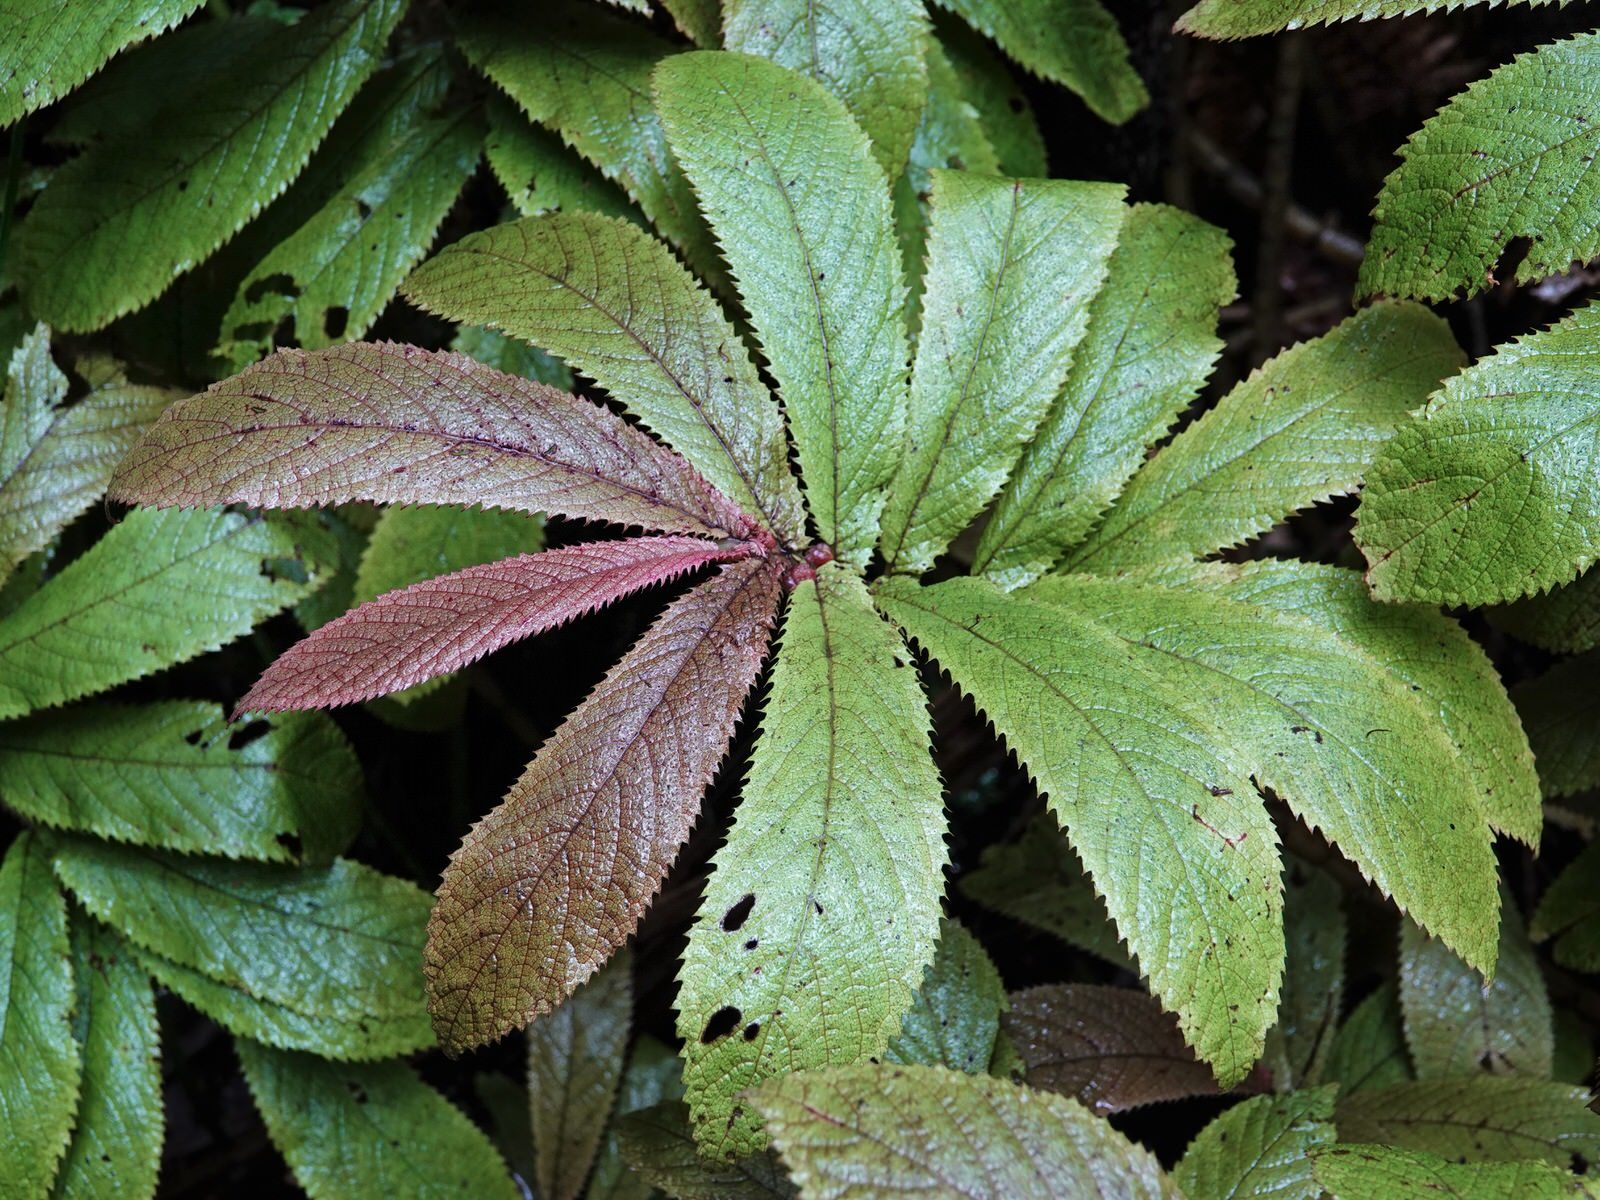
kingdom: Plantae
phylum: Tracheophyta
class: Magnoliopsida
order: Rosales
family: Urticaceae
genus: Elatostema
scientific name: Elatostema rugosum
